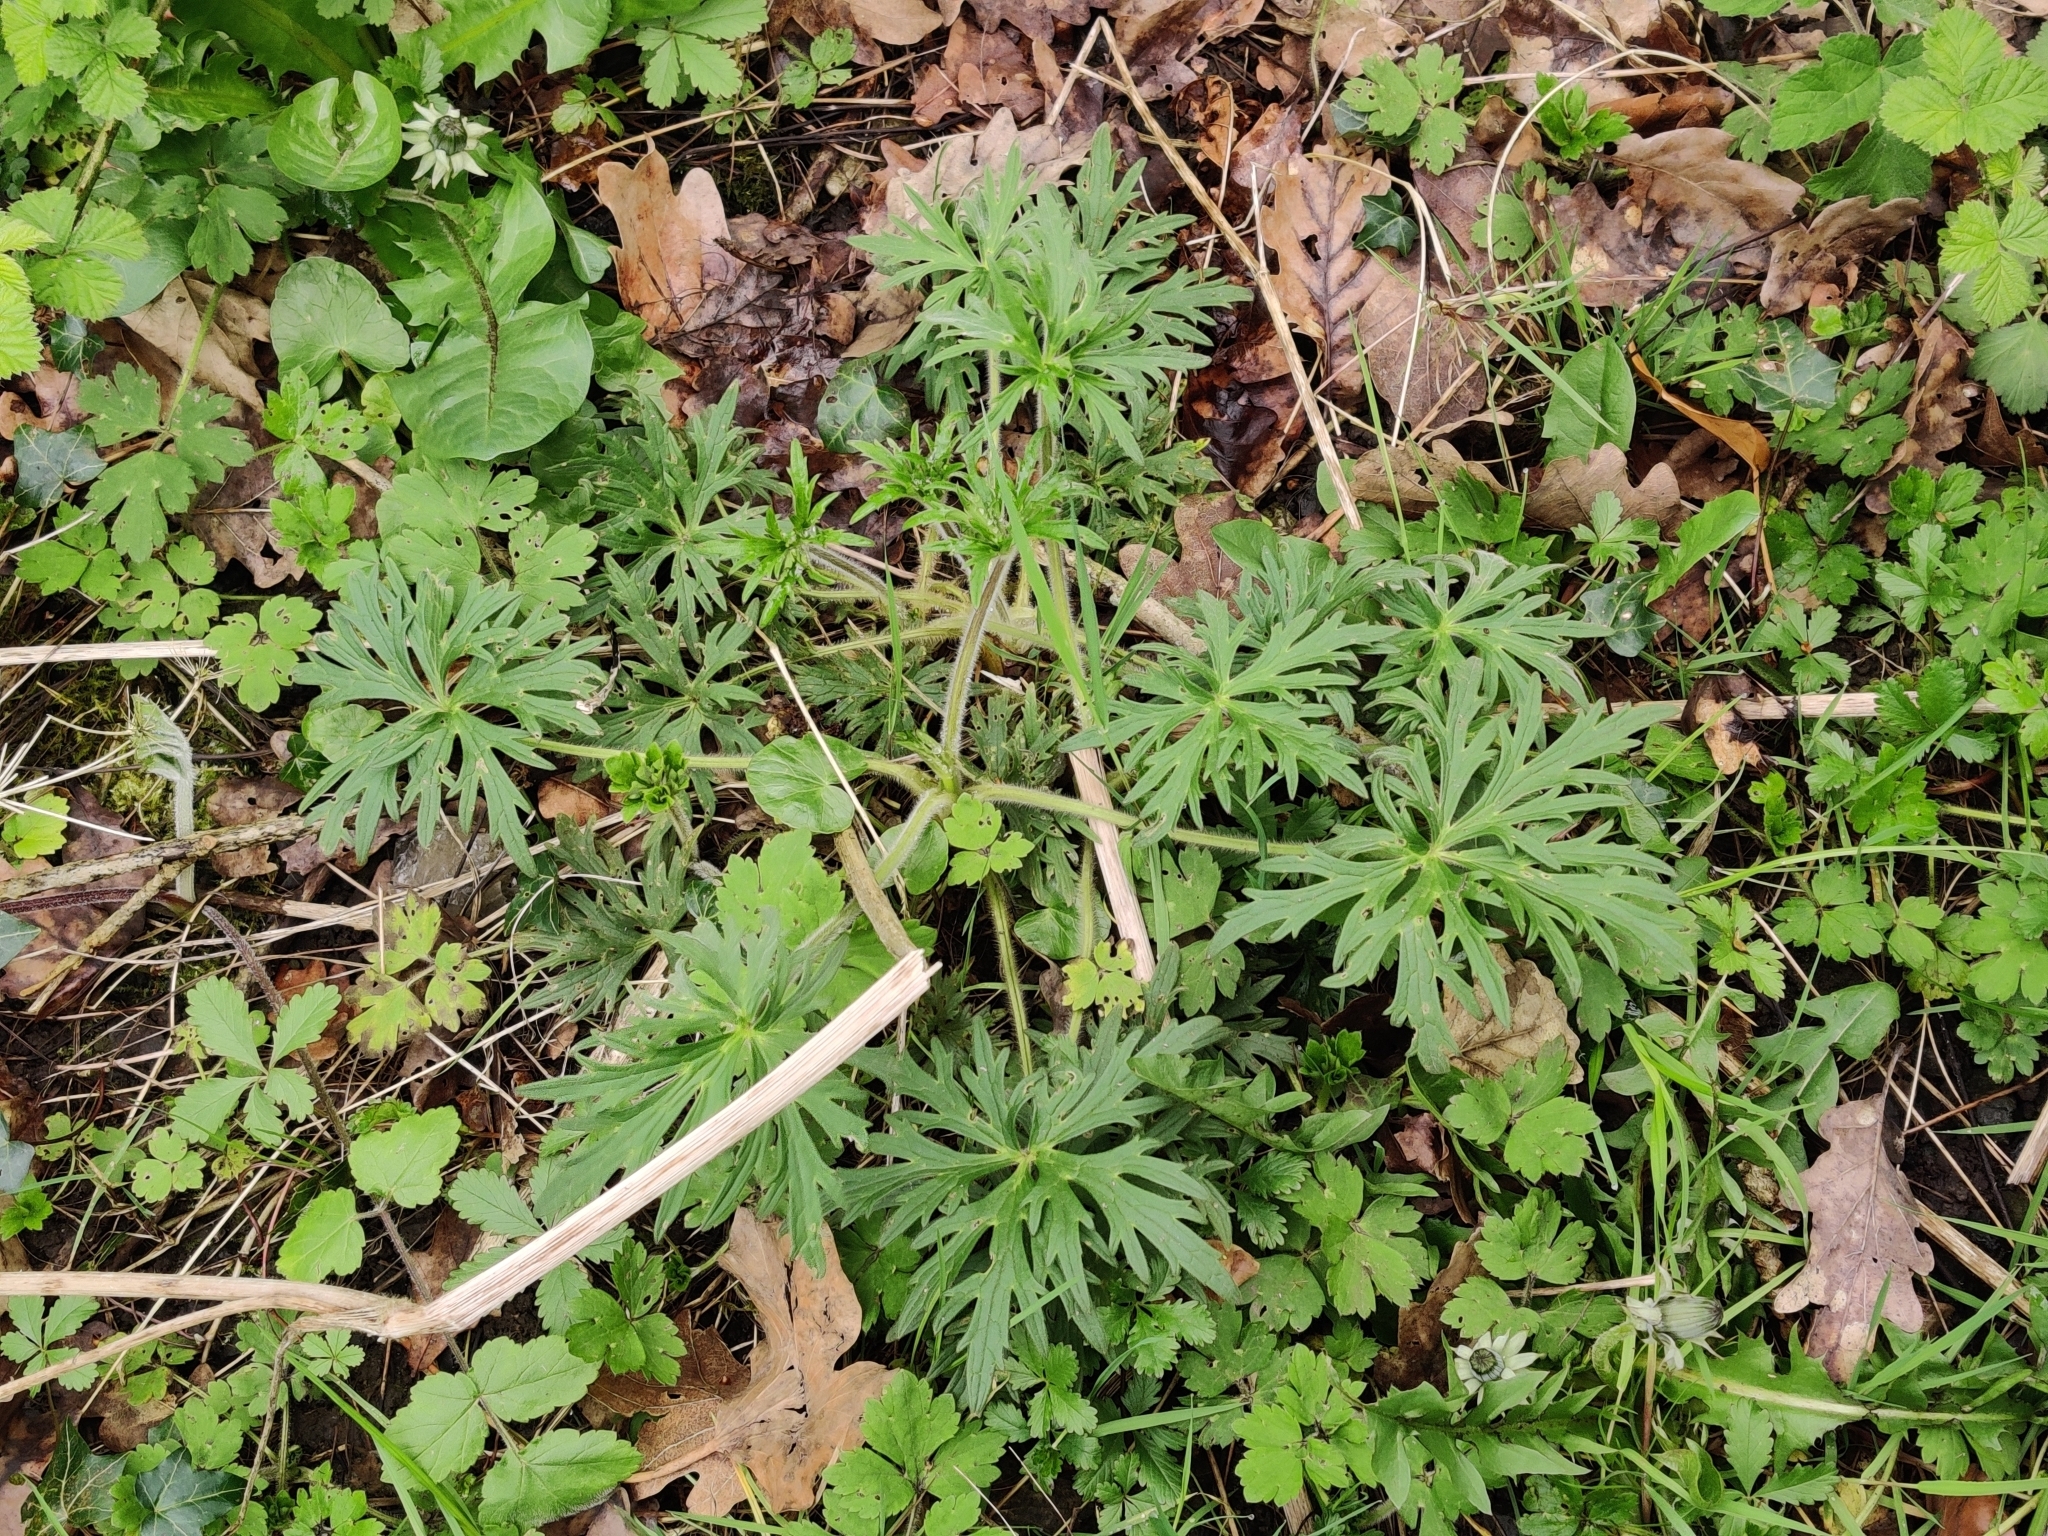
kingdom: Plantae
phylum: Tracheophyta
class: Magnoliopsida
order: Ranunculales
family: Ranunculaceae
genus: Ranunculus
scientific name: Ranunculus acris
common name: Meadow buttercup
